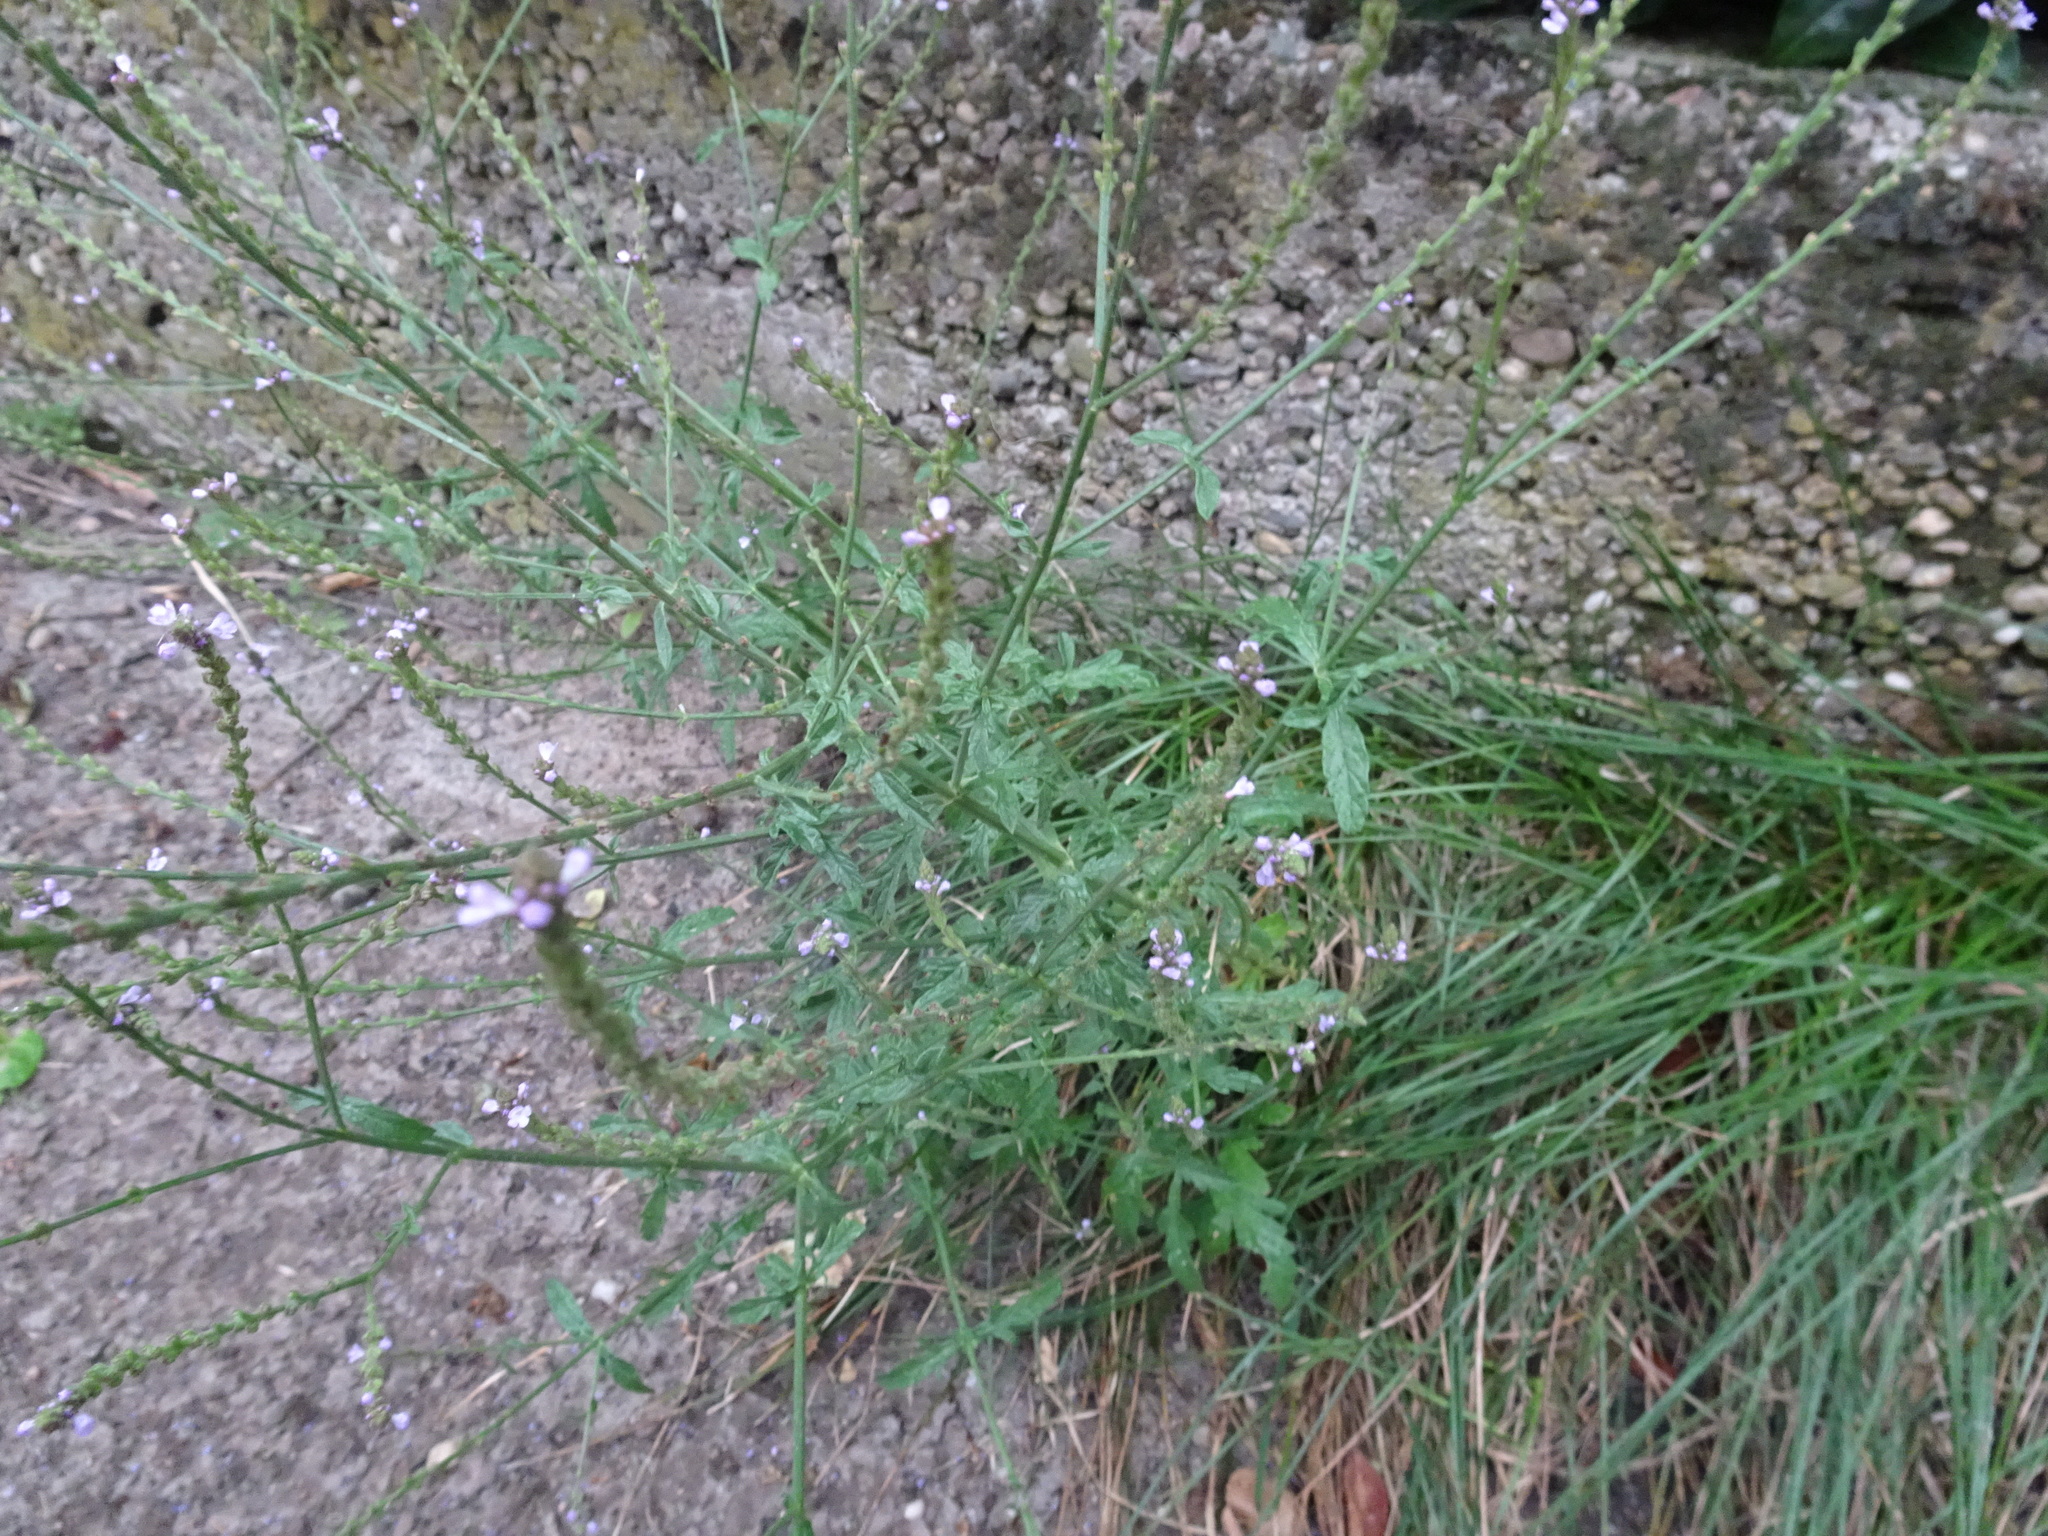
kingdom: Plantae
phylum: Tracheophyta
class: Magnoliopsida
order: Lamiales
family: Verbenaceae
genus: Verbena
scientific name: Verbena officinalis
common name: Vervain
